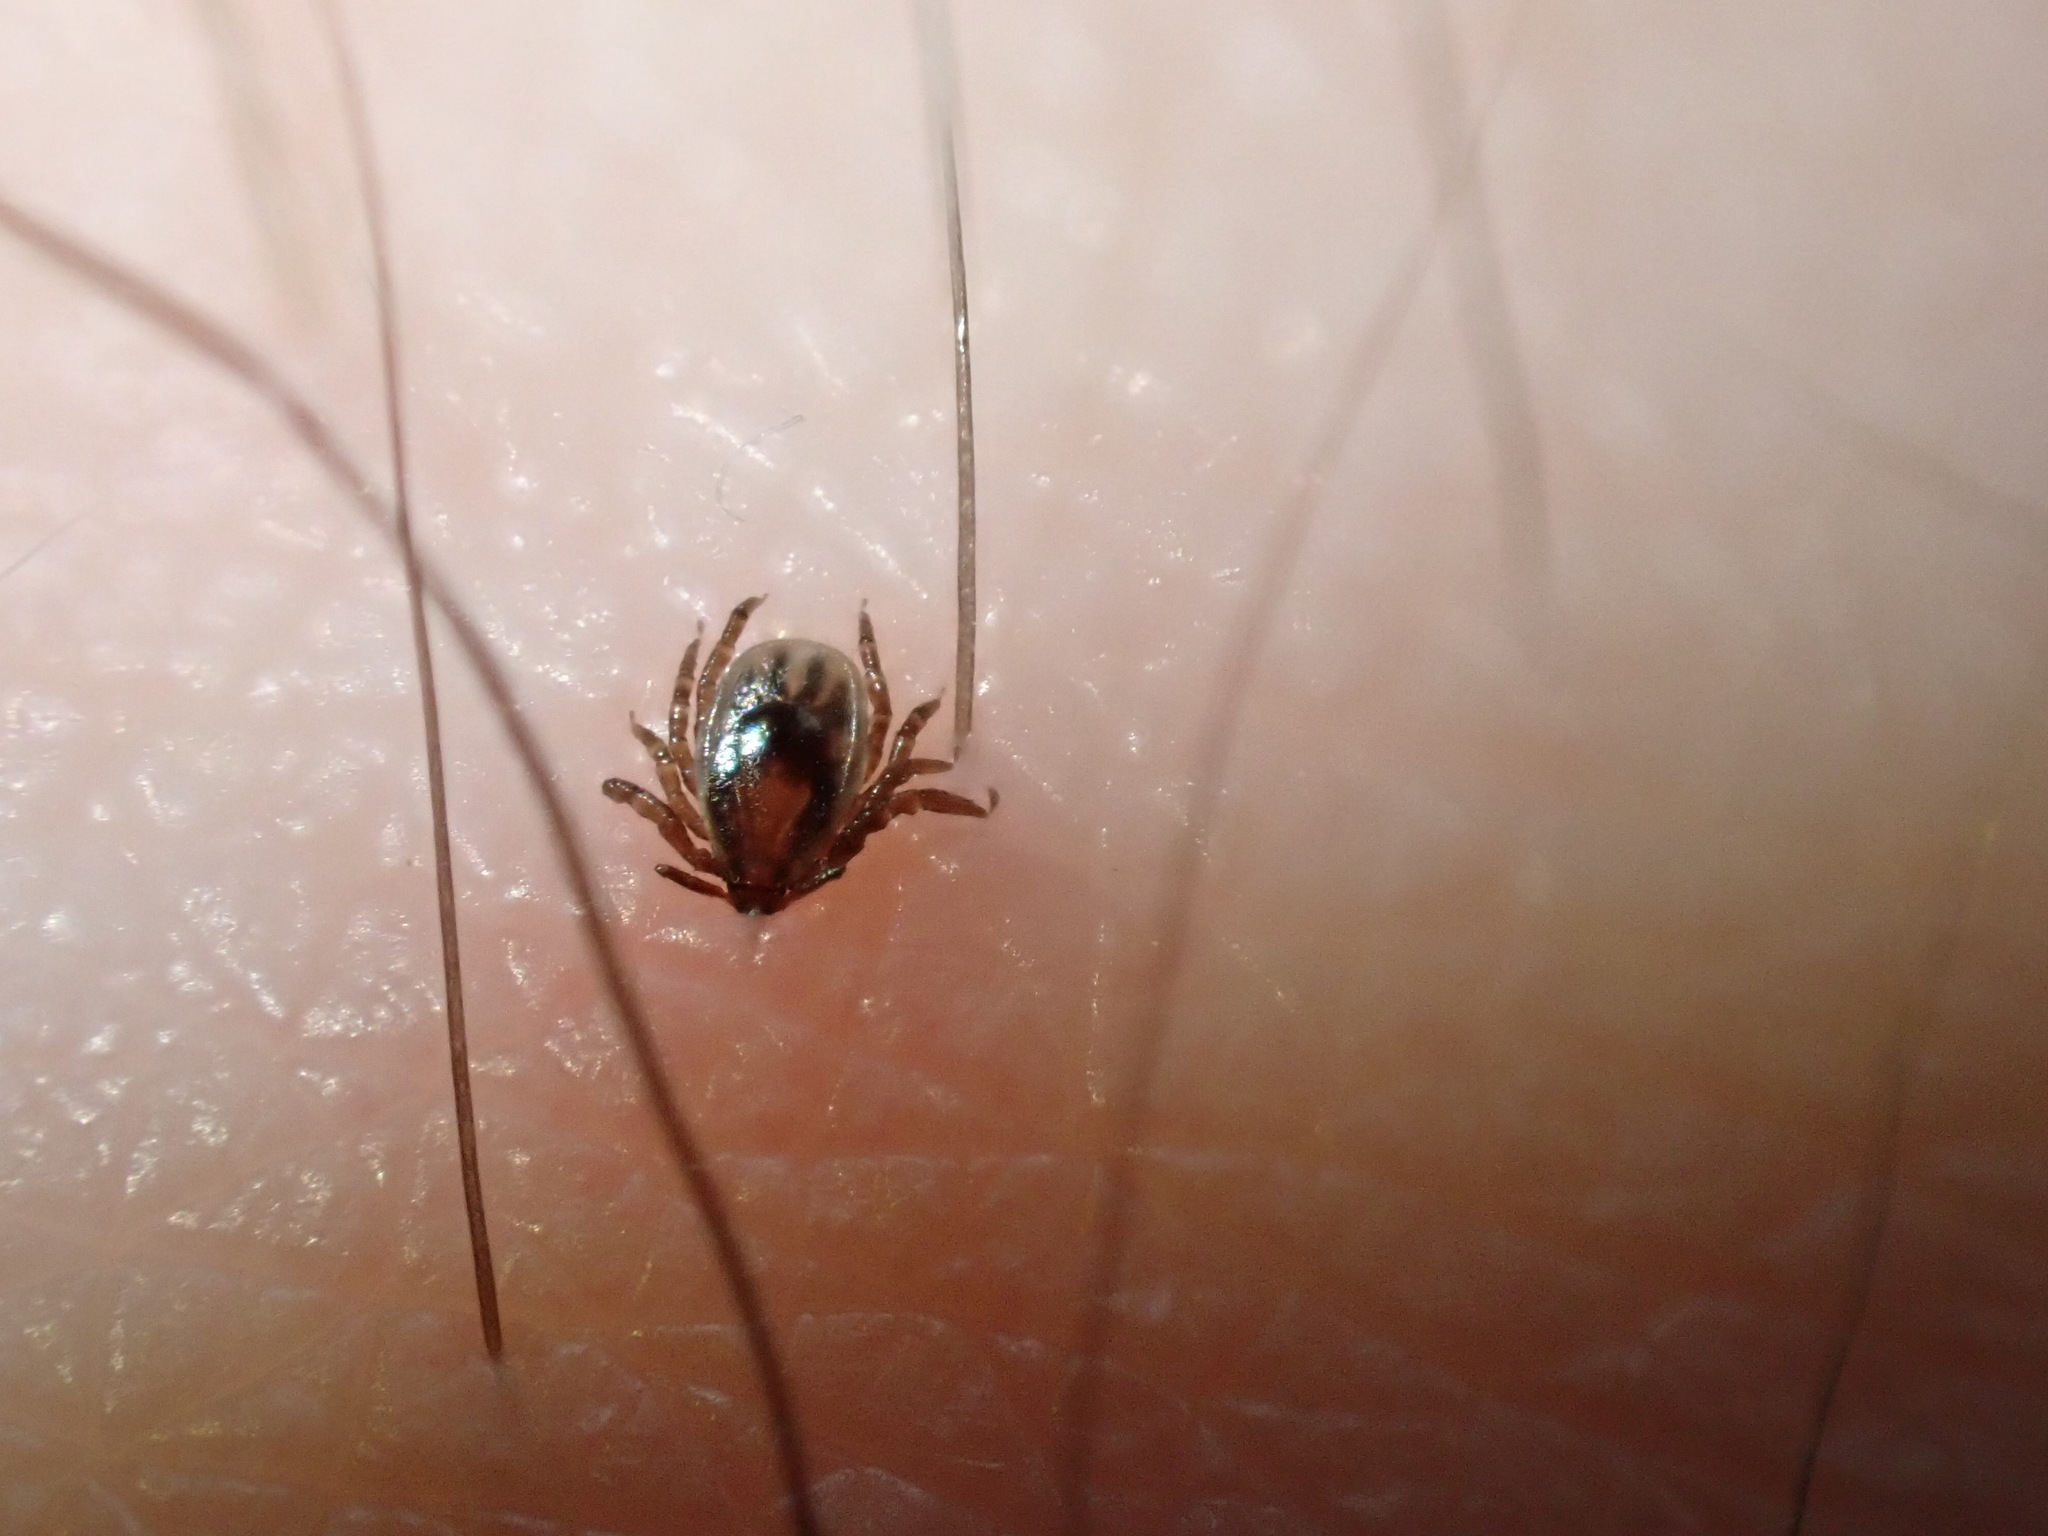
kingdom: Animalia
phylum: Arthropoda
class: Arachnida
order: Ixodida
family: Ixodidae
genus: Ixodes
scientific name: Ixodes scapularis
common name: Black legged tick
